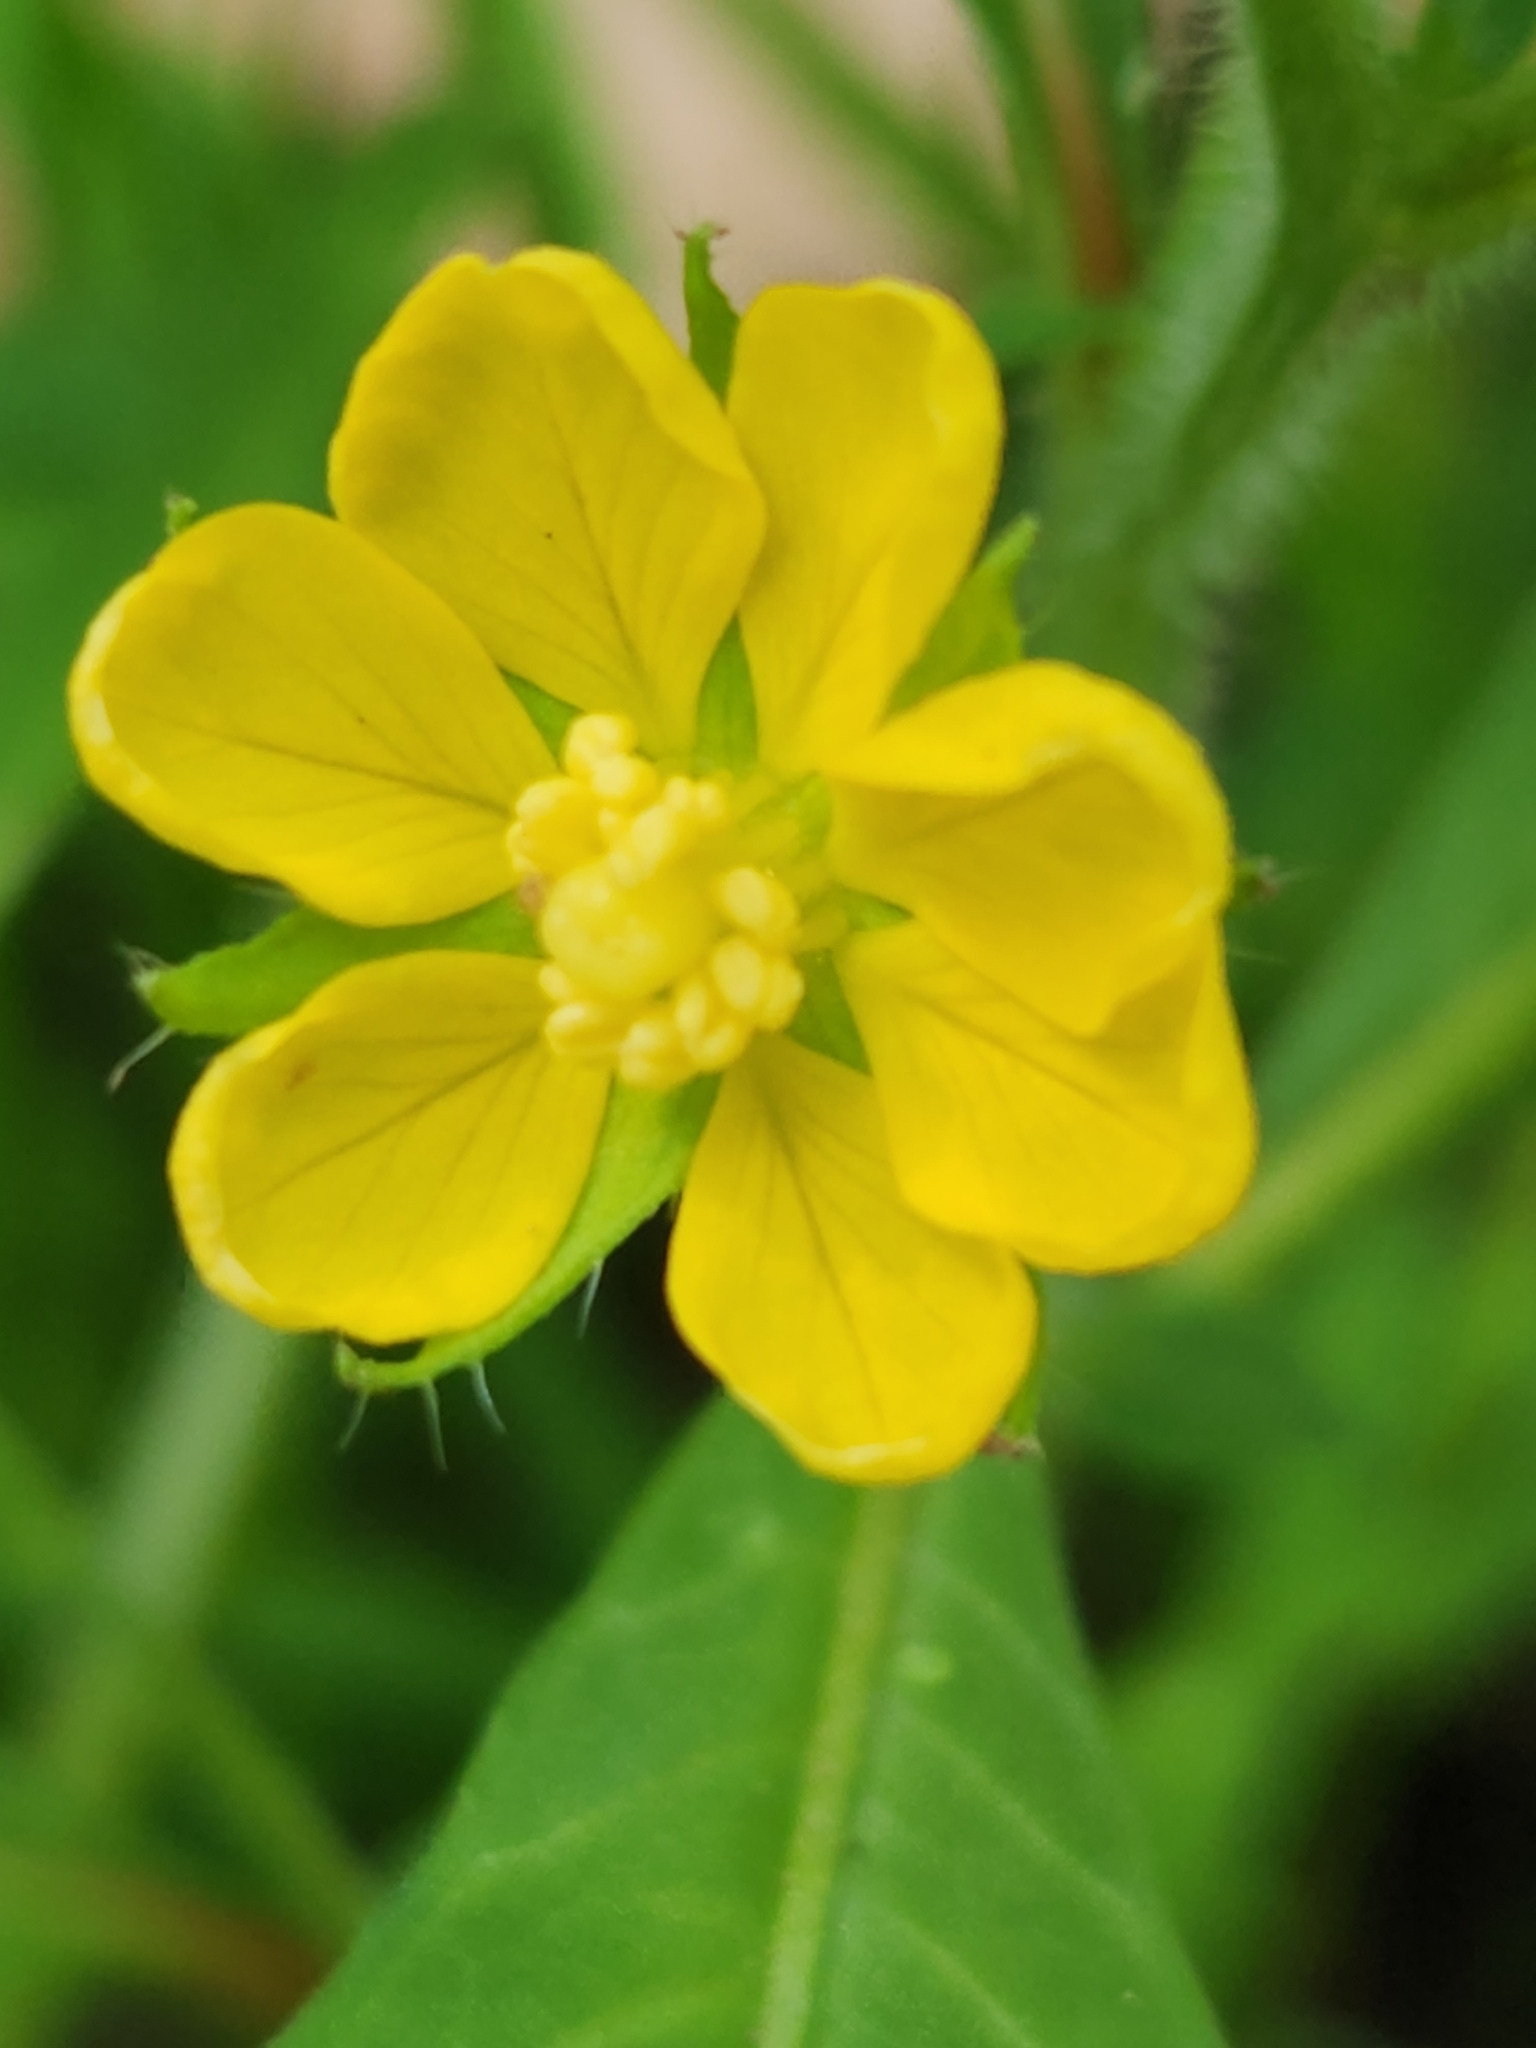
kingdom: Plantae
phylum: Tracheophyta
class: Magnoliopsida
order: Myrtales
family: Onagraceae
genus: Ludwigia
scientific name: Ludwigia leptocarpa
